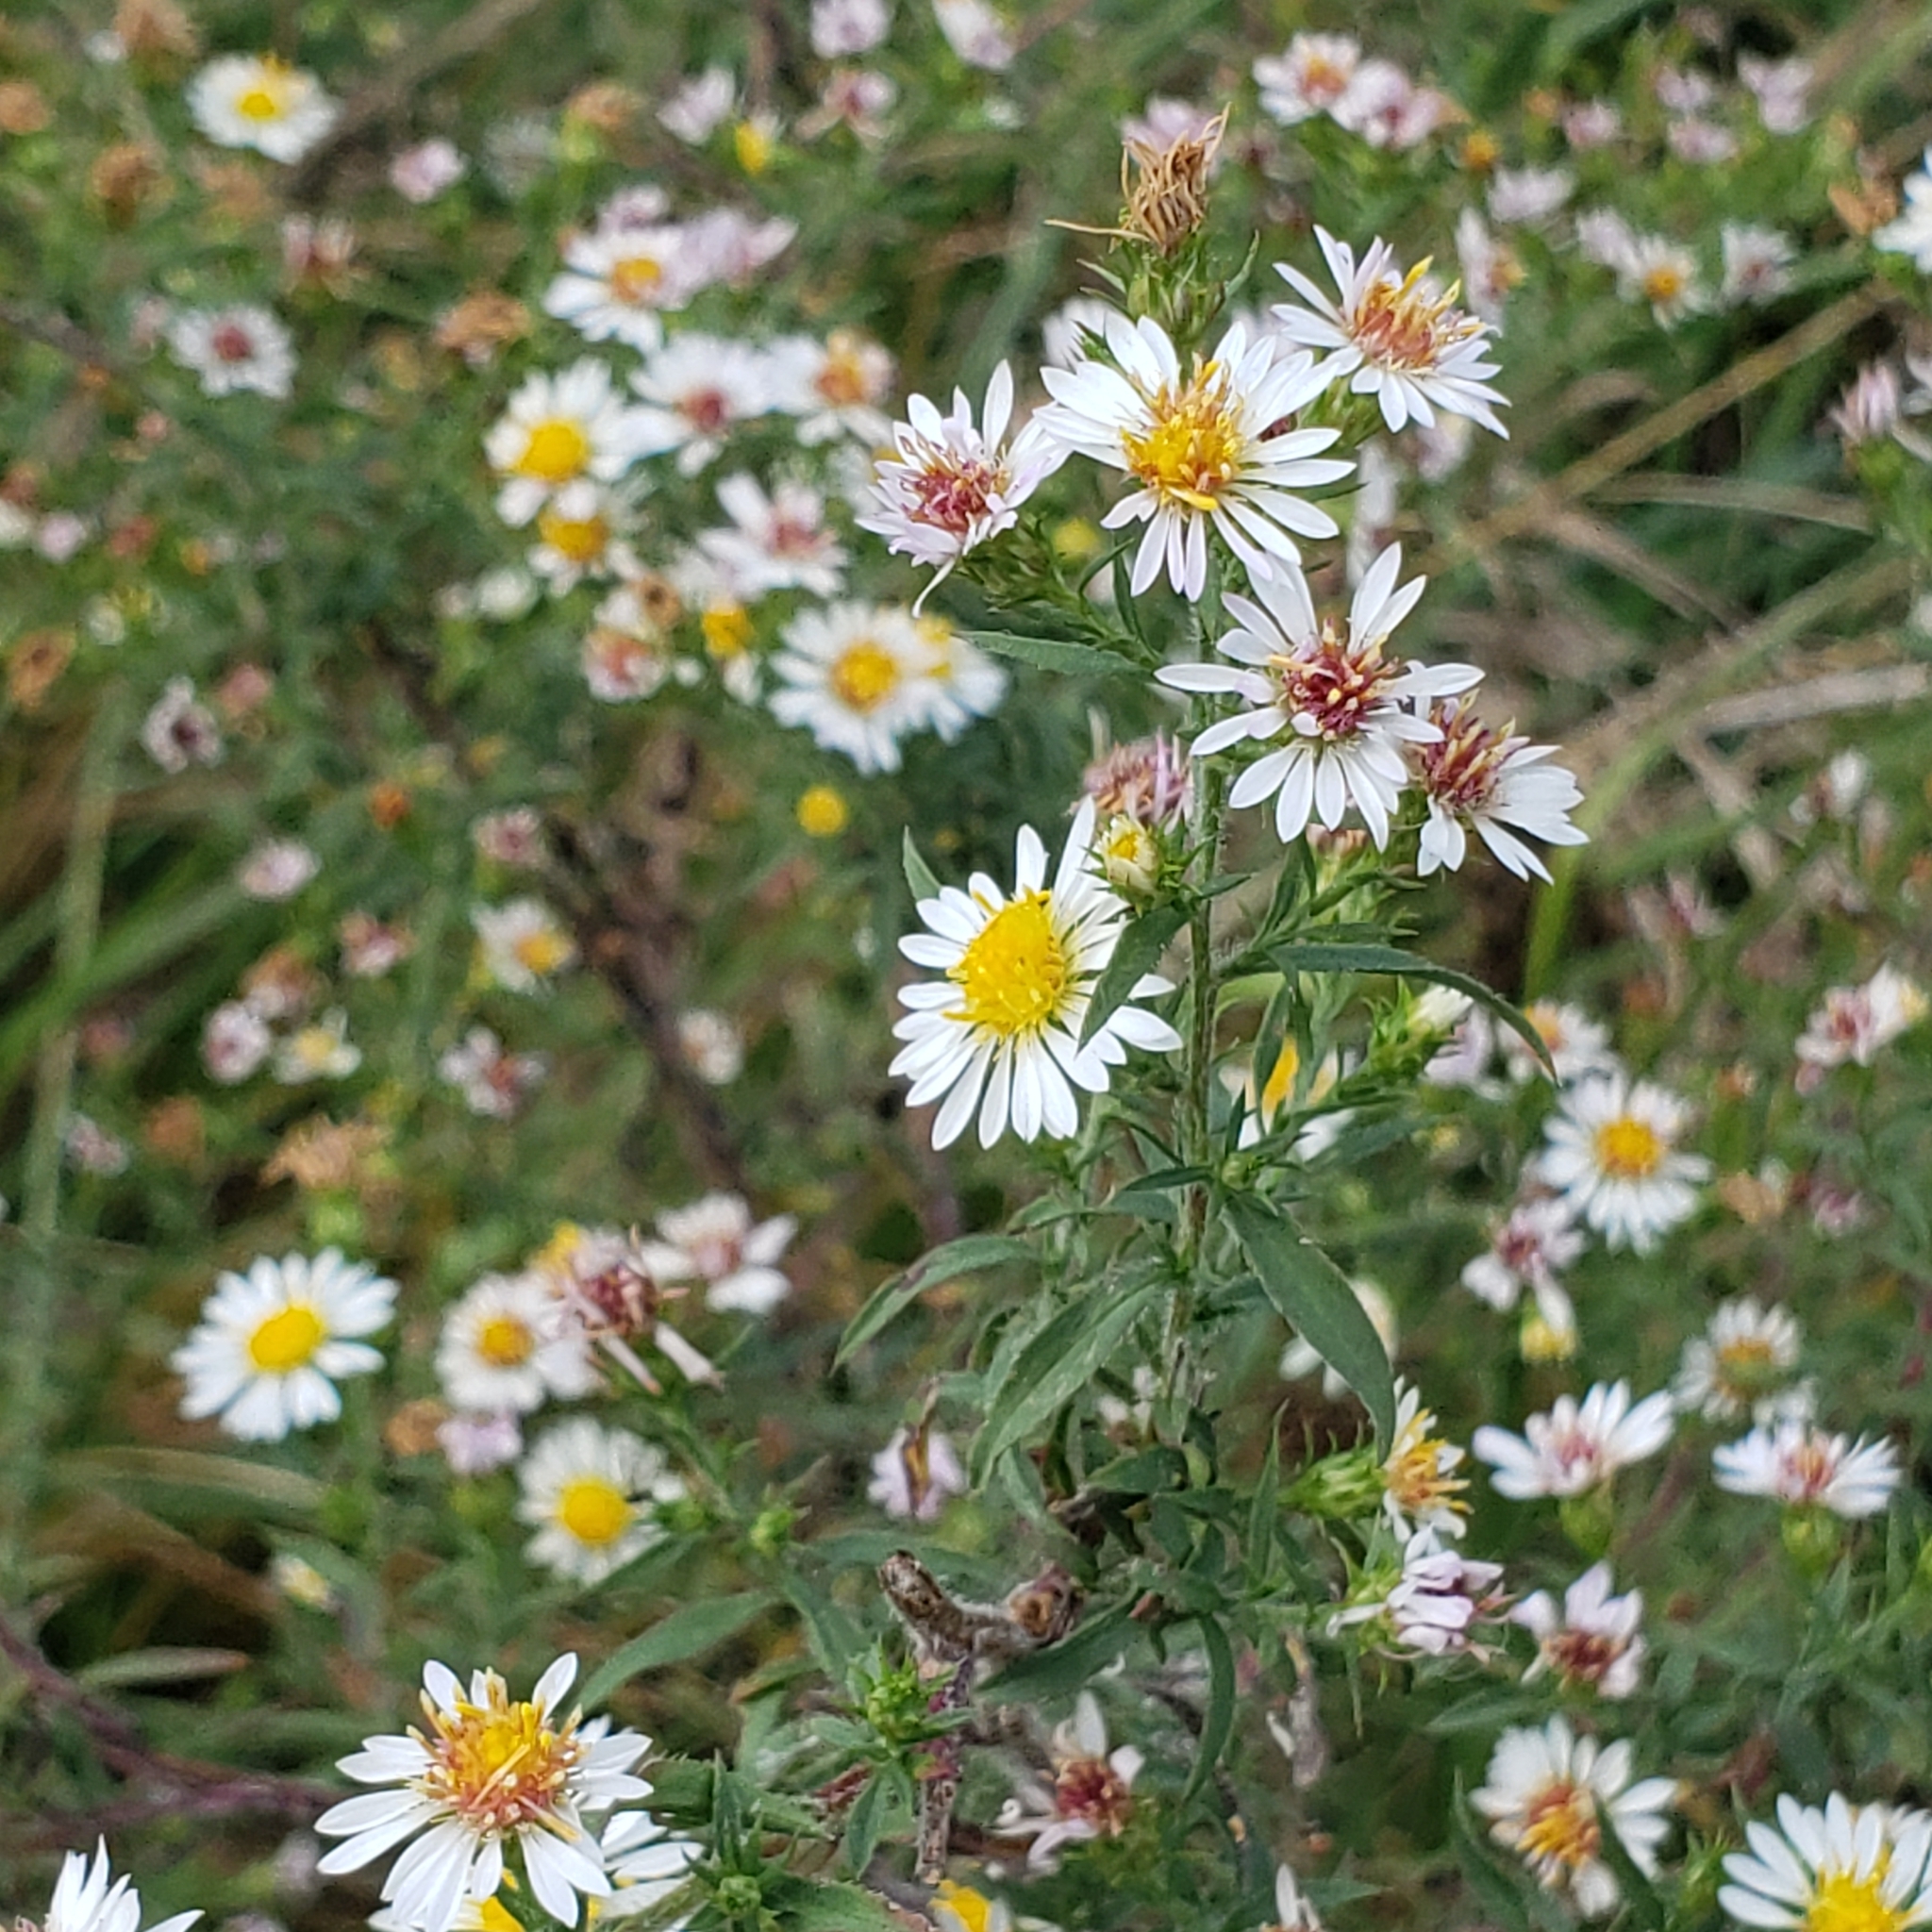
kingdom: Plantae
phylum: Tracheophyta
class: Magnoliopsida
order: Asterales
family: Asteraceae
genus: Symphyotrichum
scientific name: Symphyotrichum pilosum
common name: Awl aster
